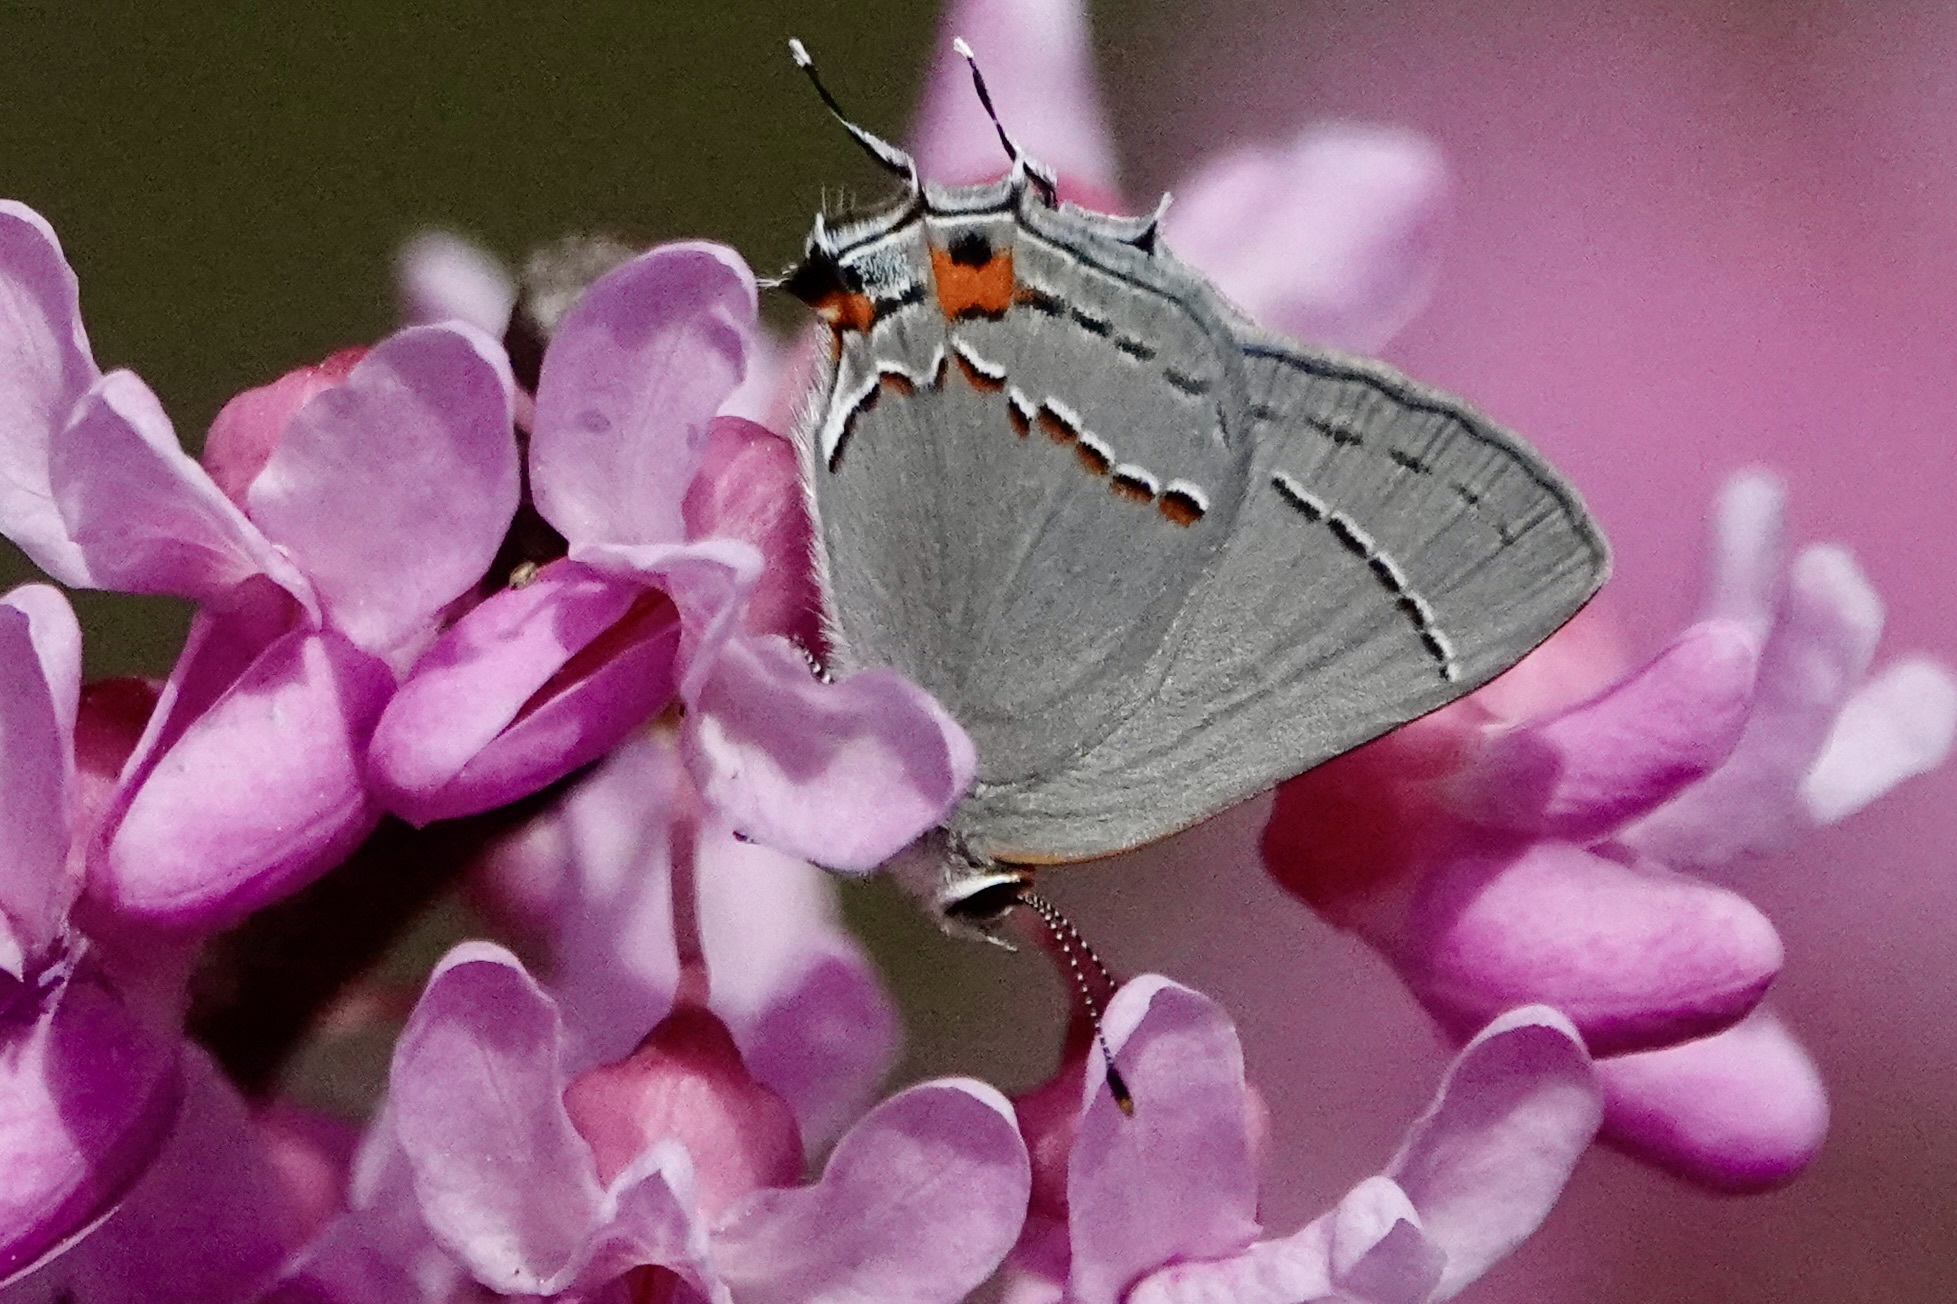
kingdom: Animalia
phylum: Arthropoda
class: Insecta
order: Lepidoptera
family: Lycaenidae
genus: Strymon
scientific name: Strymon melinus
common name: Gray hairstreak
